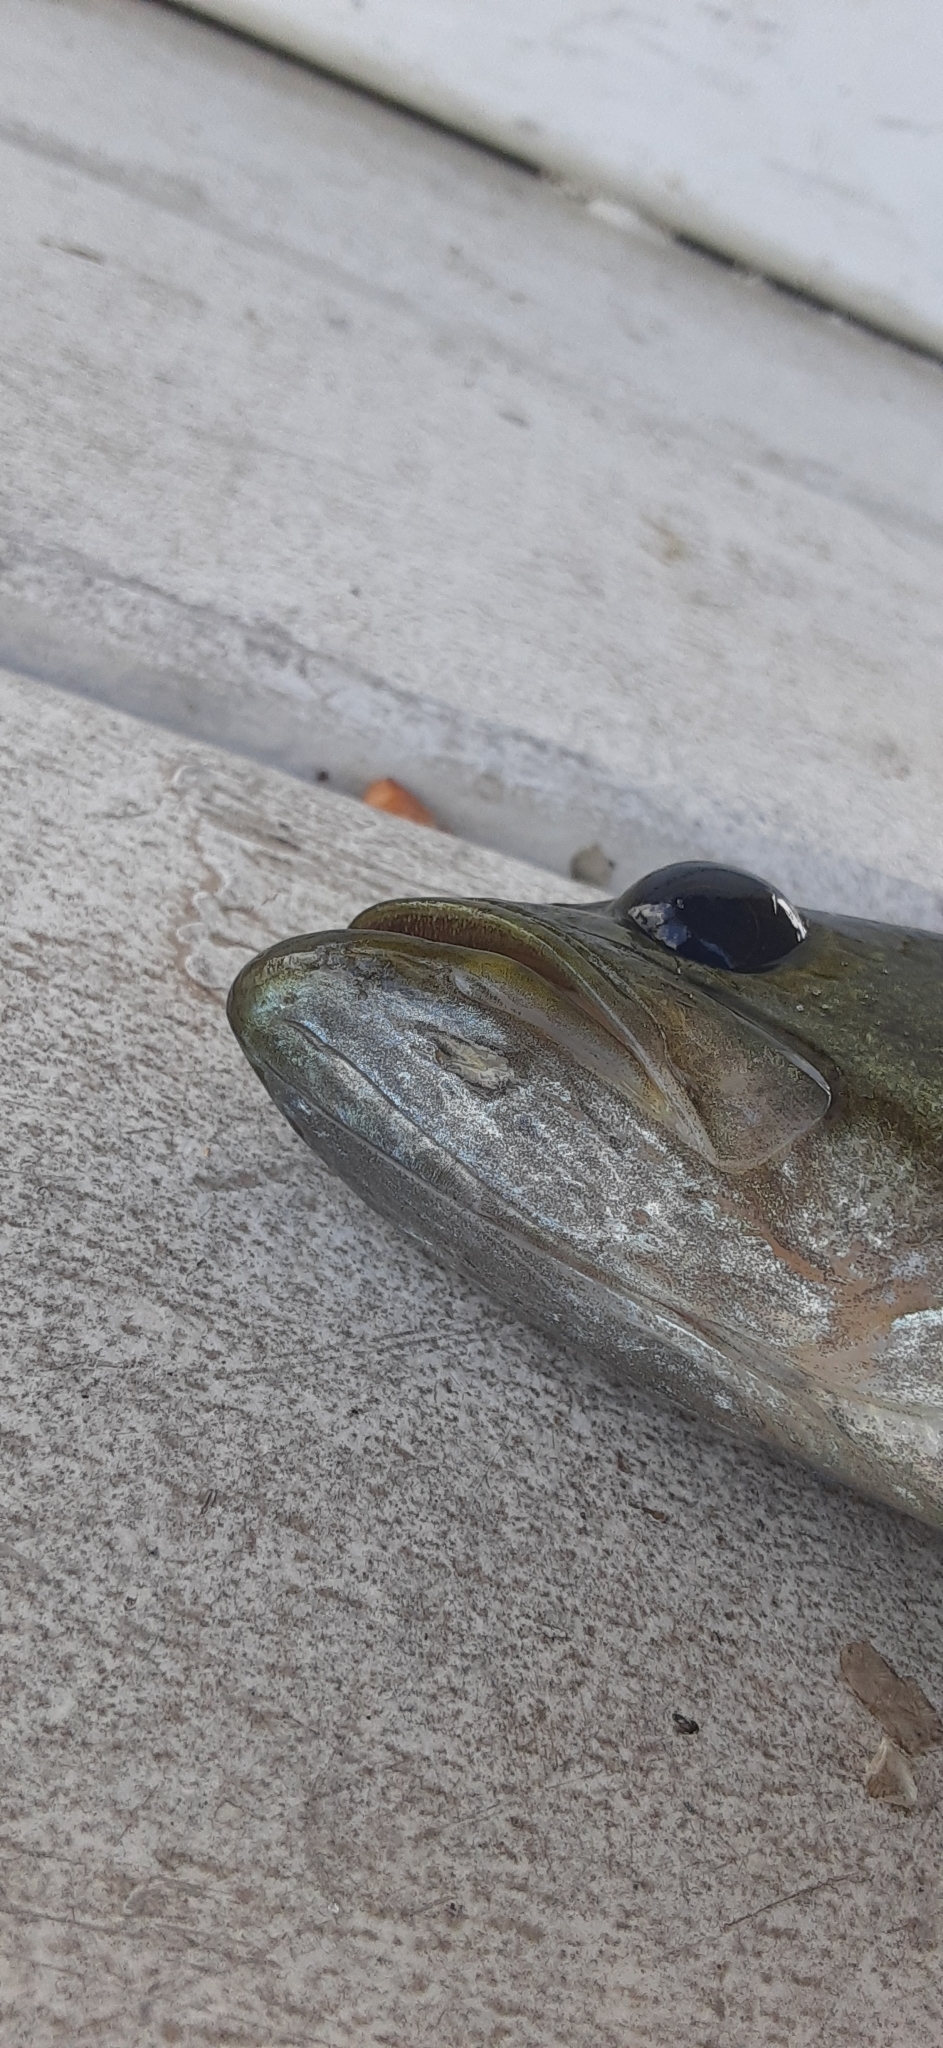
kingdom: Animalia
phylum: Chordata
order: Perciformes
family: Centrarchidae
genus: Micropterus
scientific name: Micropterus
